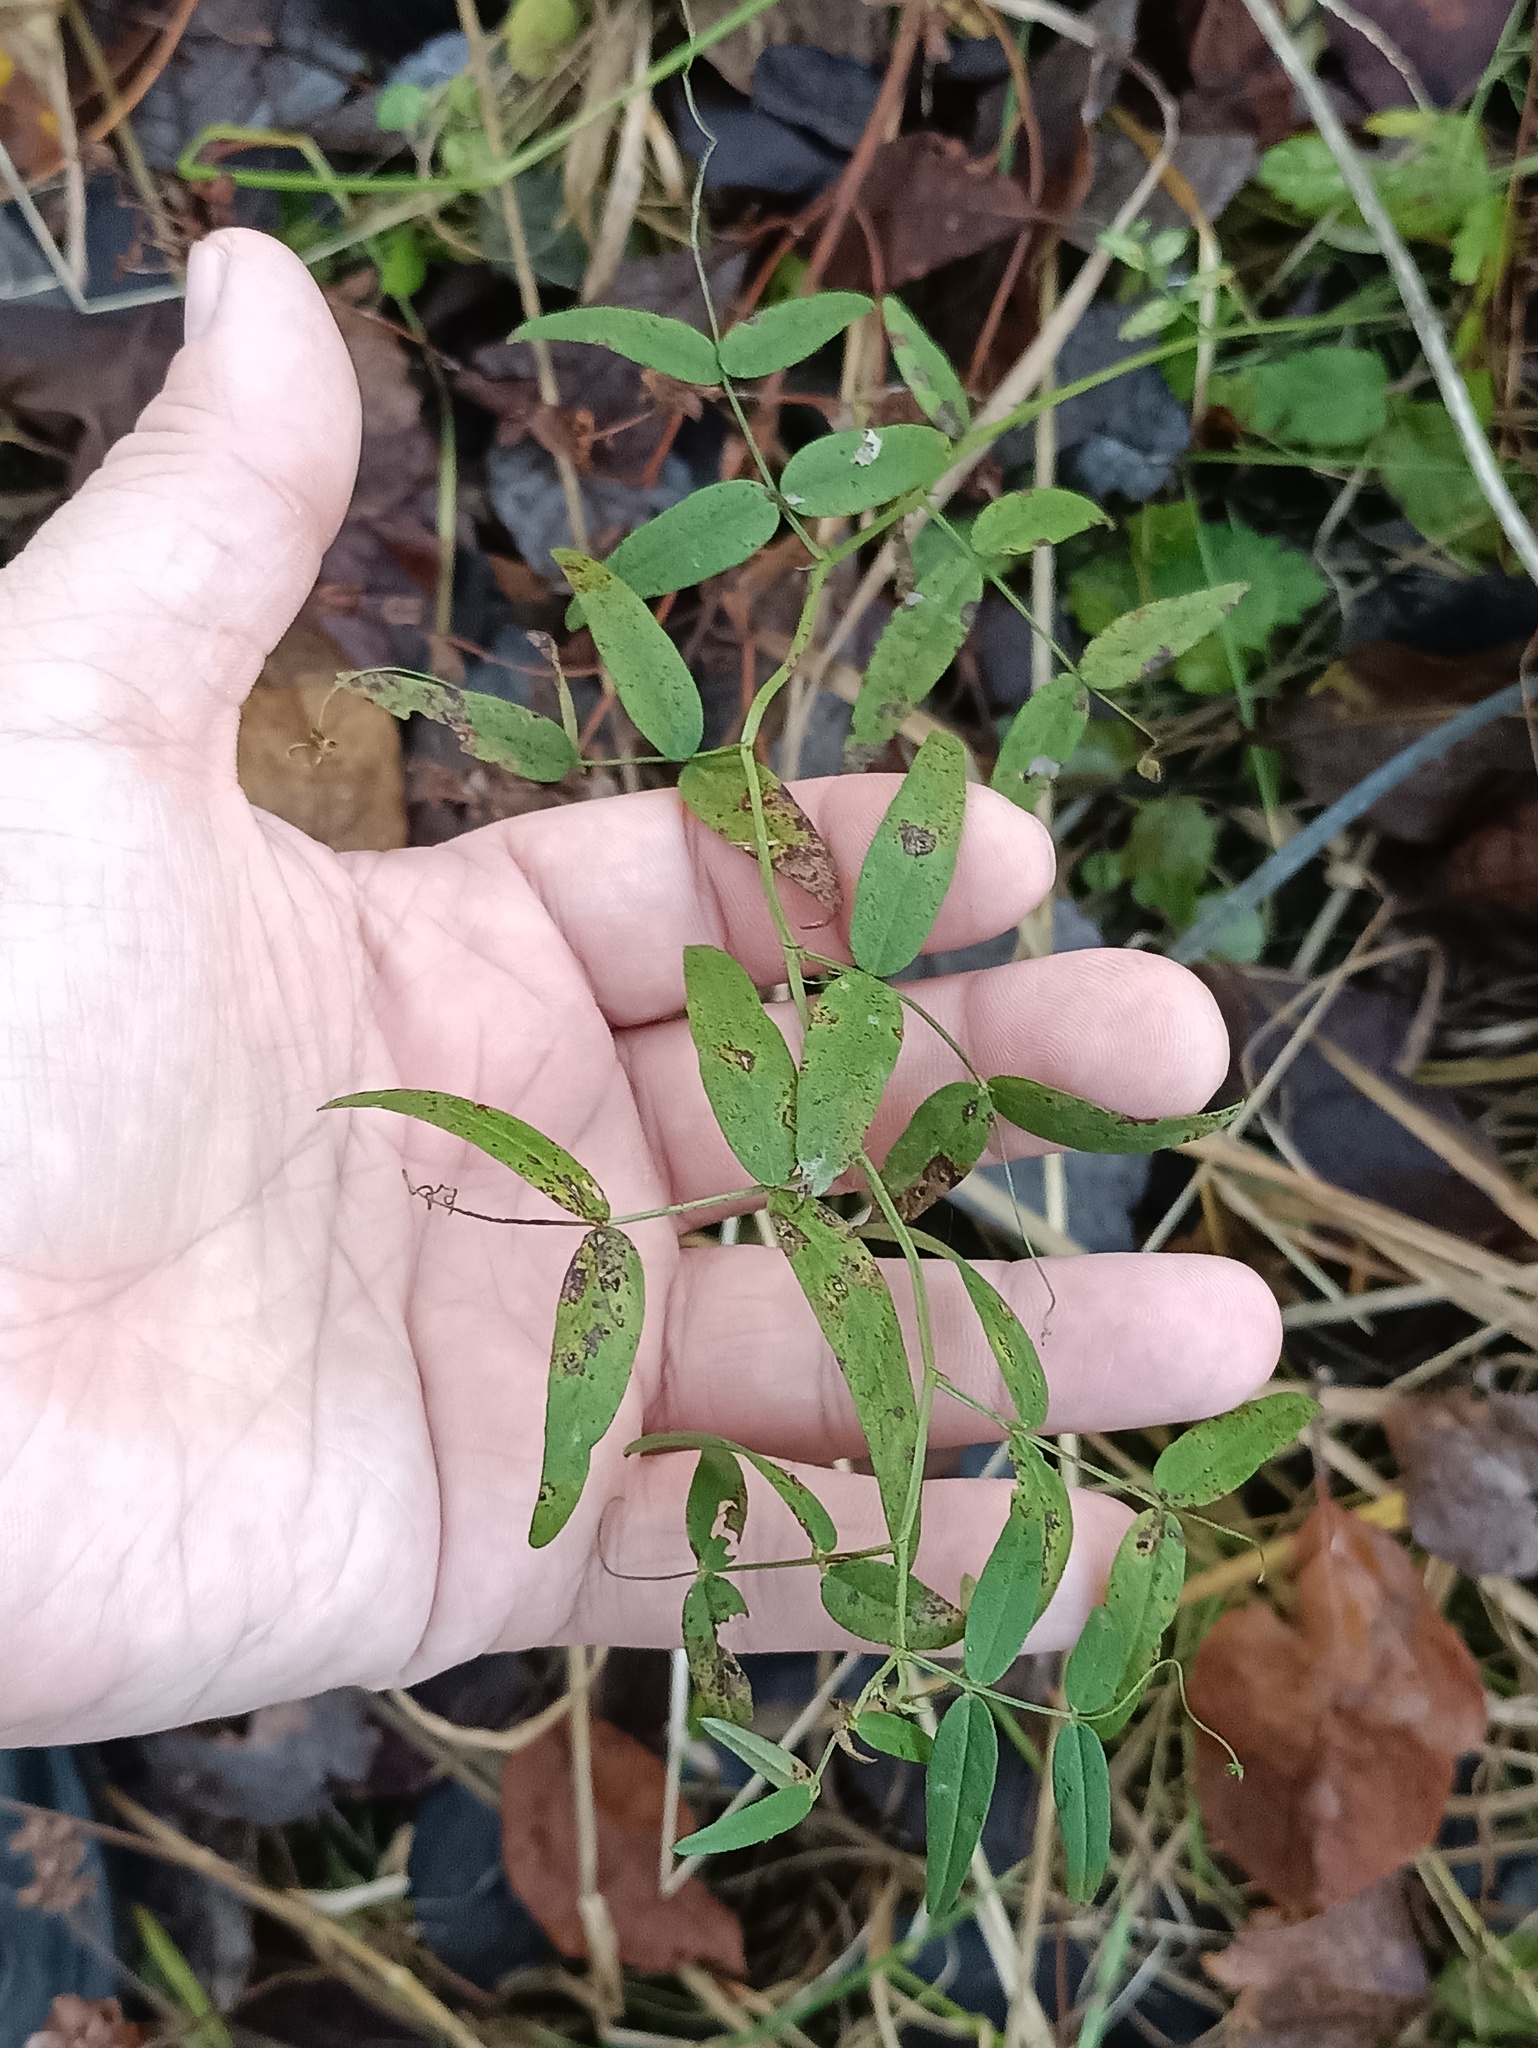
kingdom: Plantae
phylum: Tracheophyta
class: Magnoliopsida
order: Fabales
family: Fabaceae
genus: Vicia
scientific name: Vicia sepium
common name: Bush vetch
